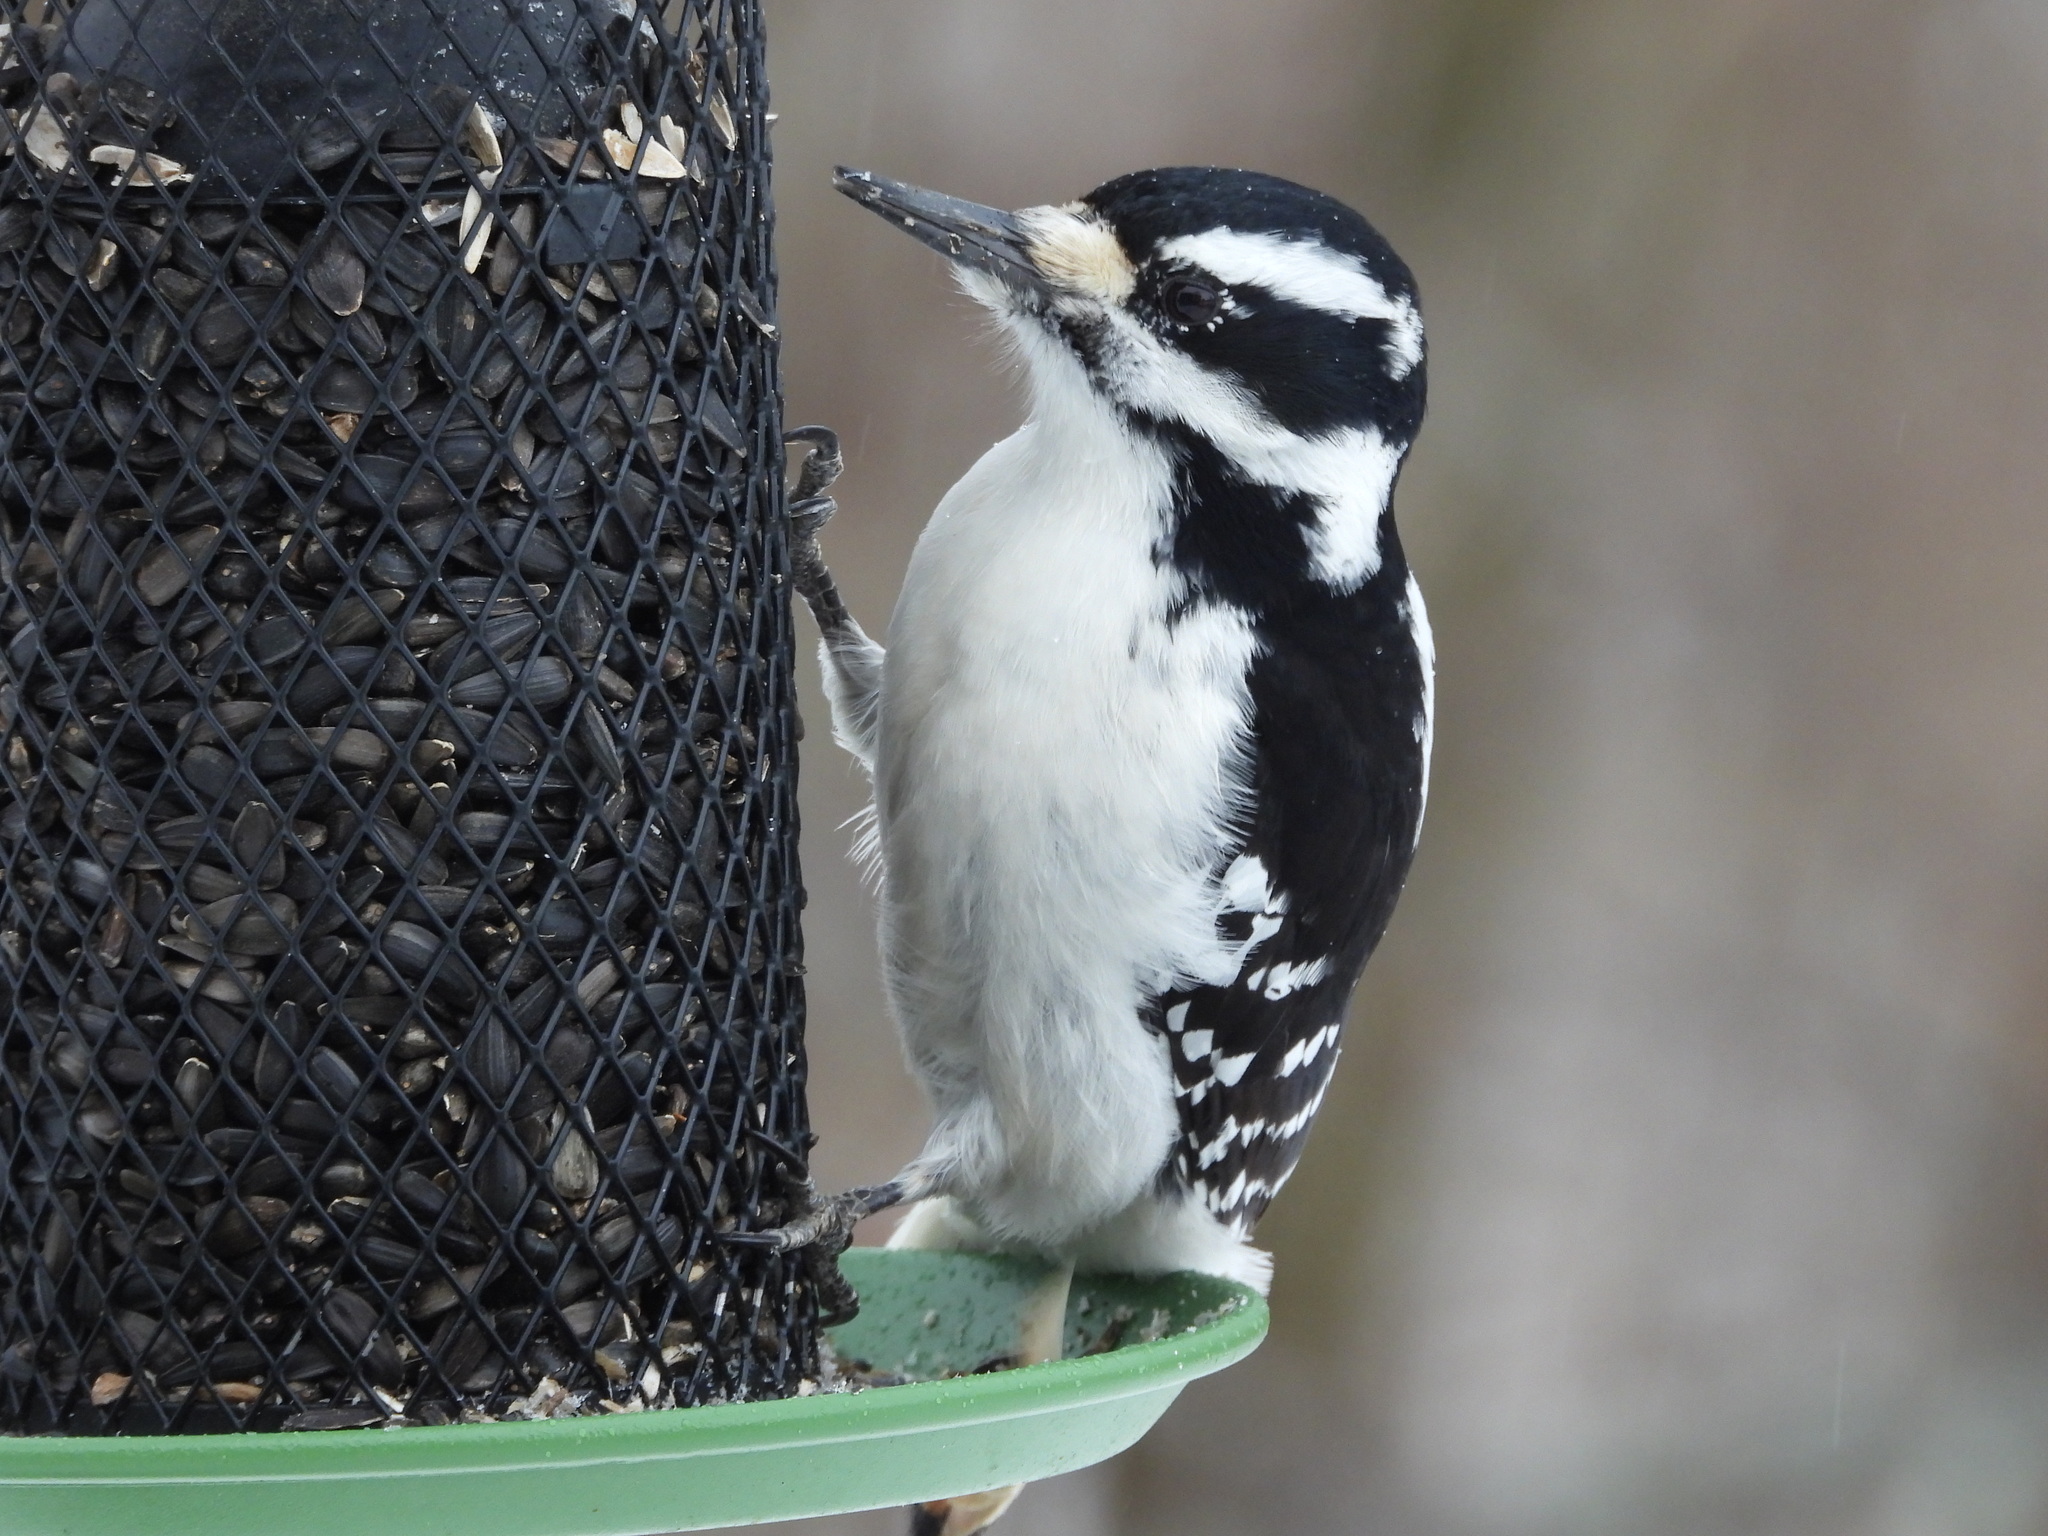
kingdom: Animalia
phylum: Chordata
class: Aves
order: Piciformes
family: Picidae
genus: Leuconotopicus
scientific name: Leuconotopicus villosus
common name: Hairy woodpecker
